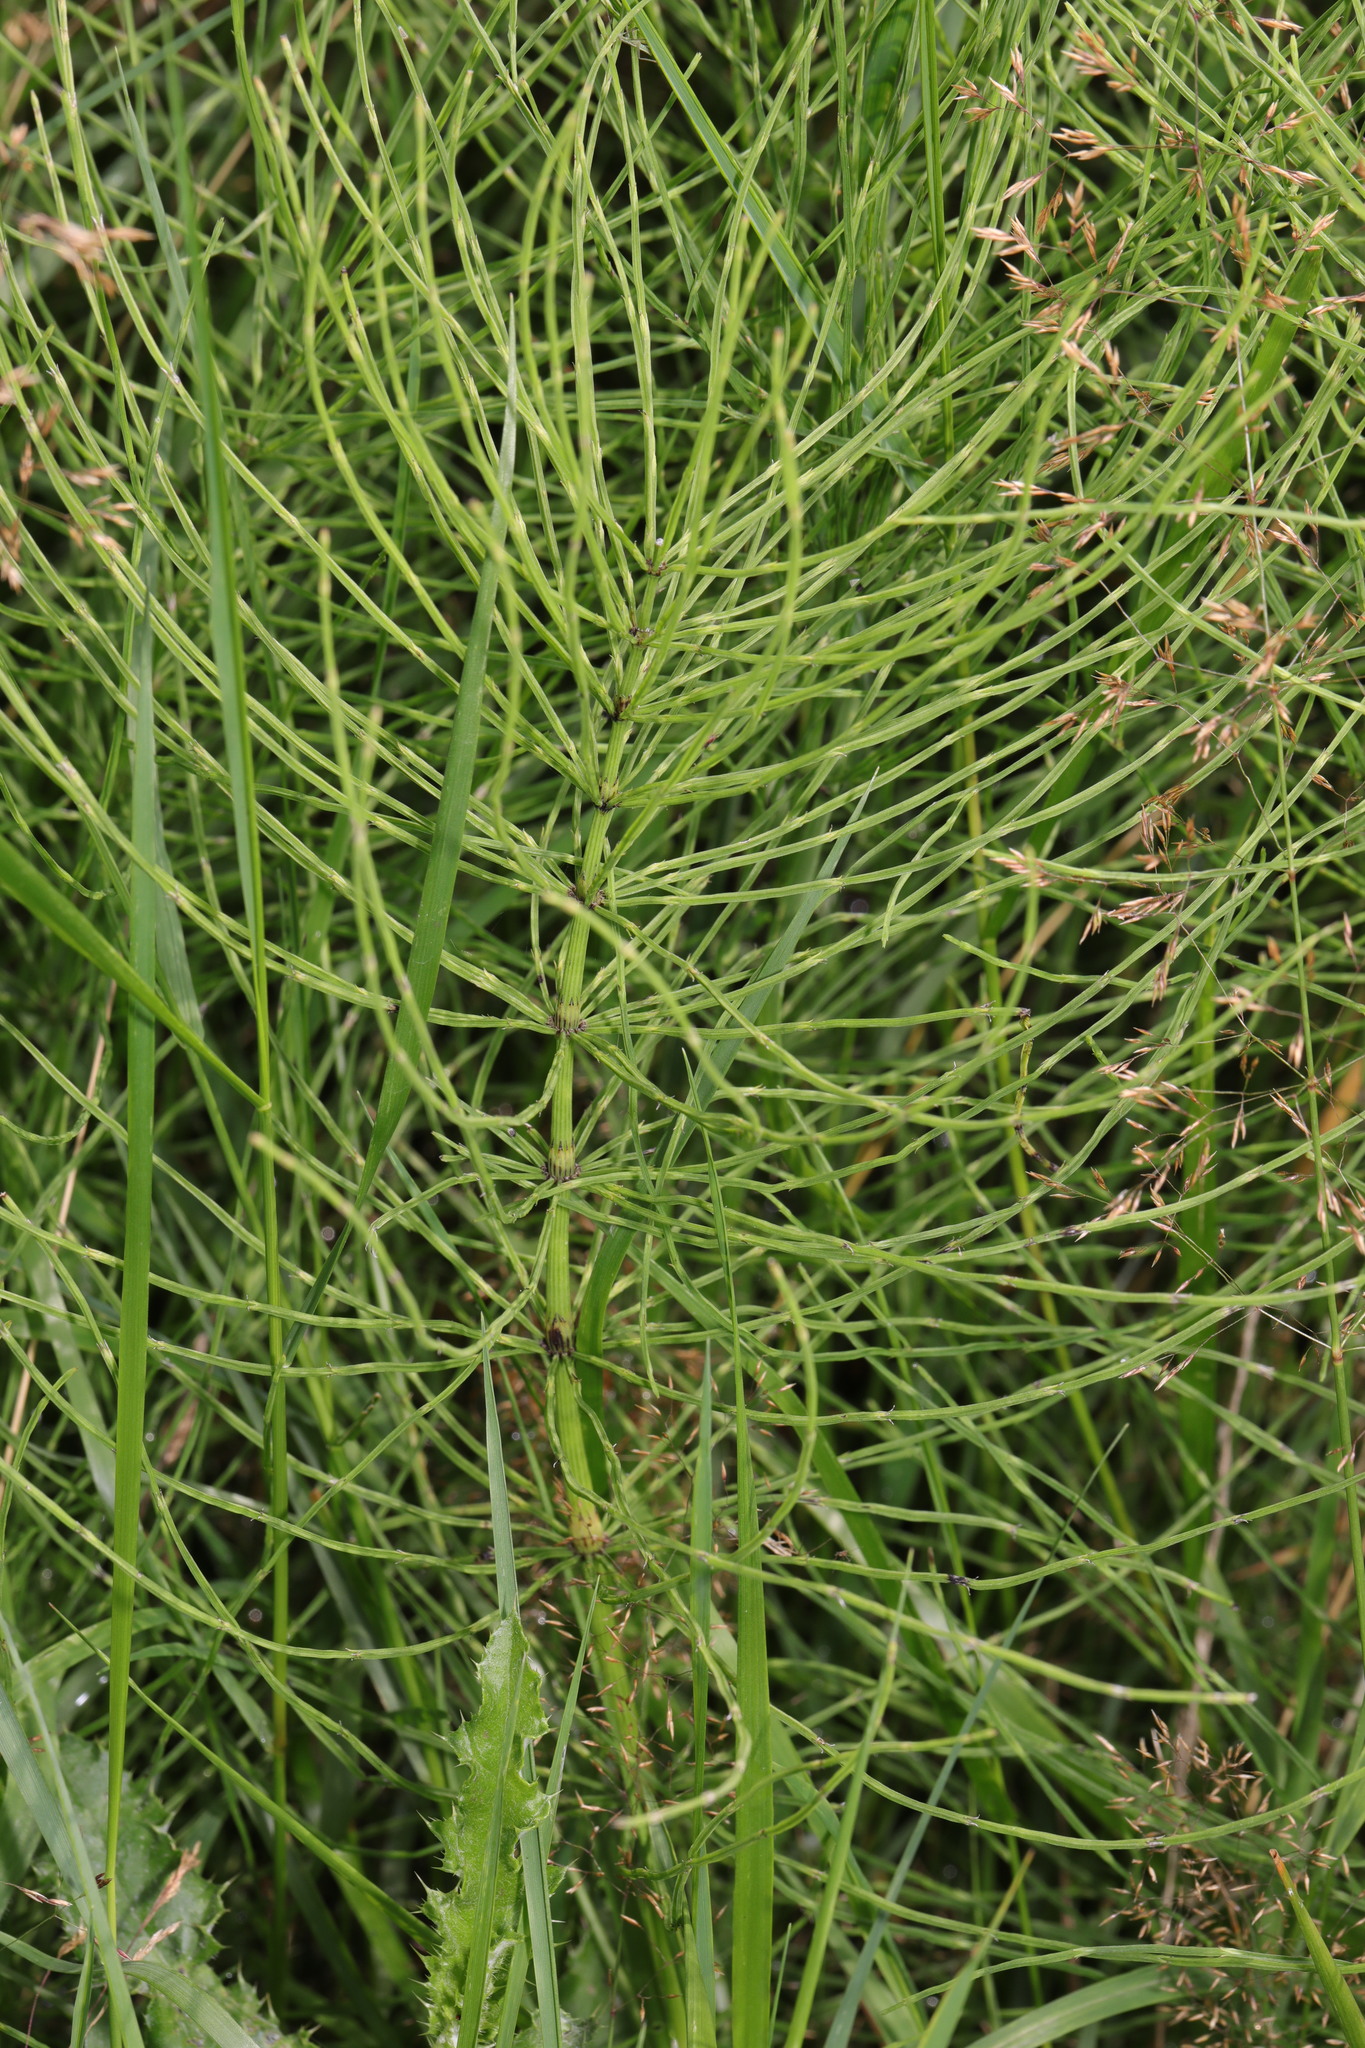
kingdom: Plantae
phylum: Tracheophyta
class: Polypodiopsida
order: Equisetales
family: Equisetaceae
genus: Equisetum
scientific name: Equisetum arvense
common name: Field horsetail
